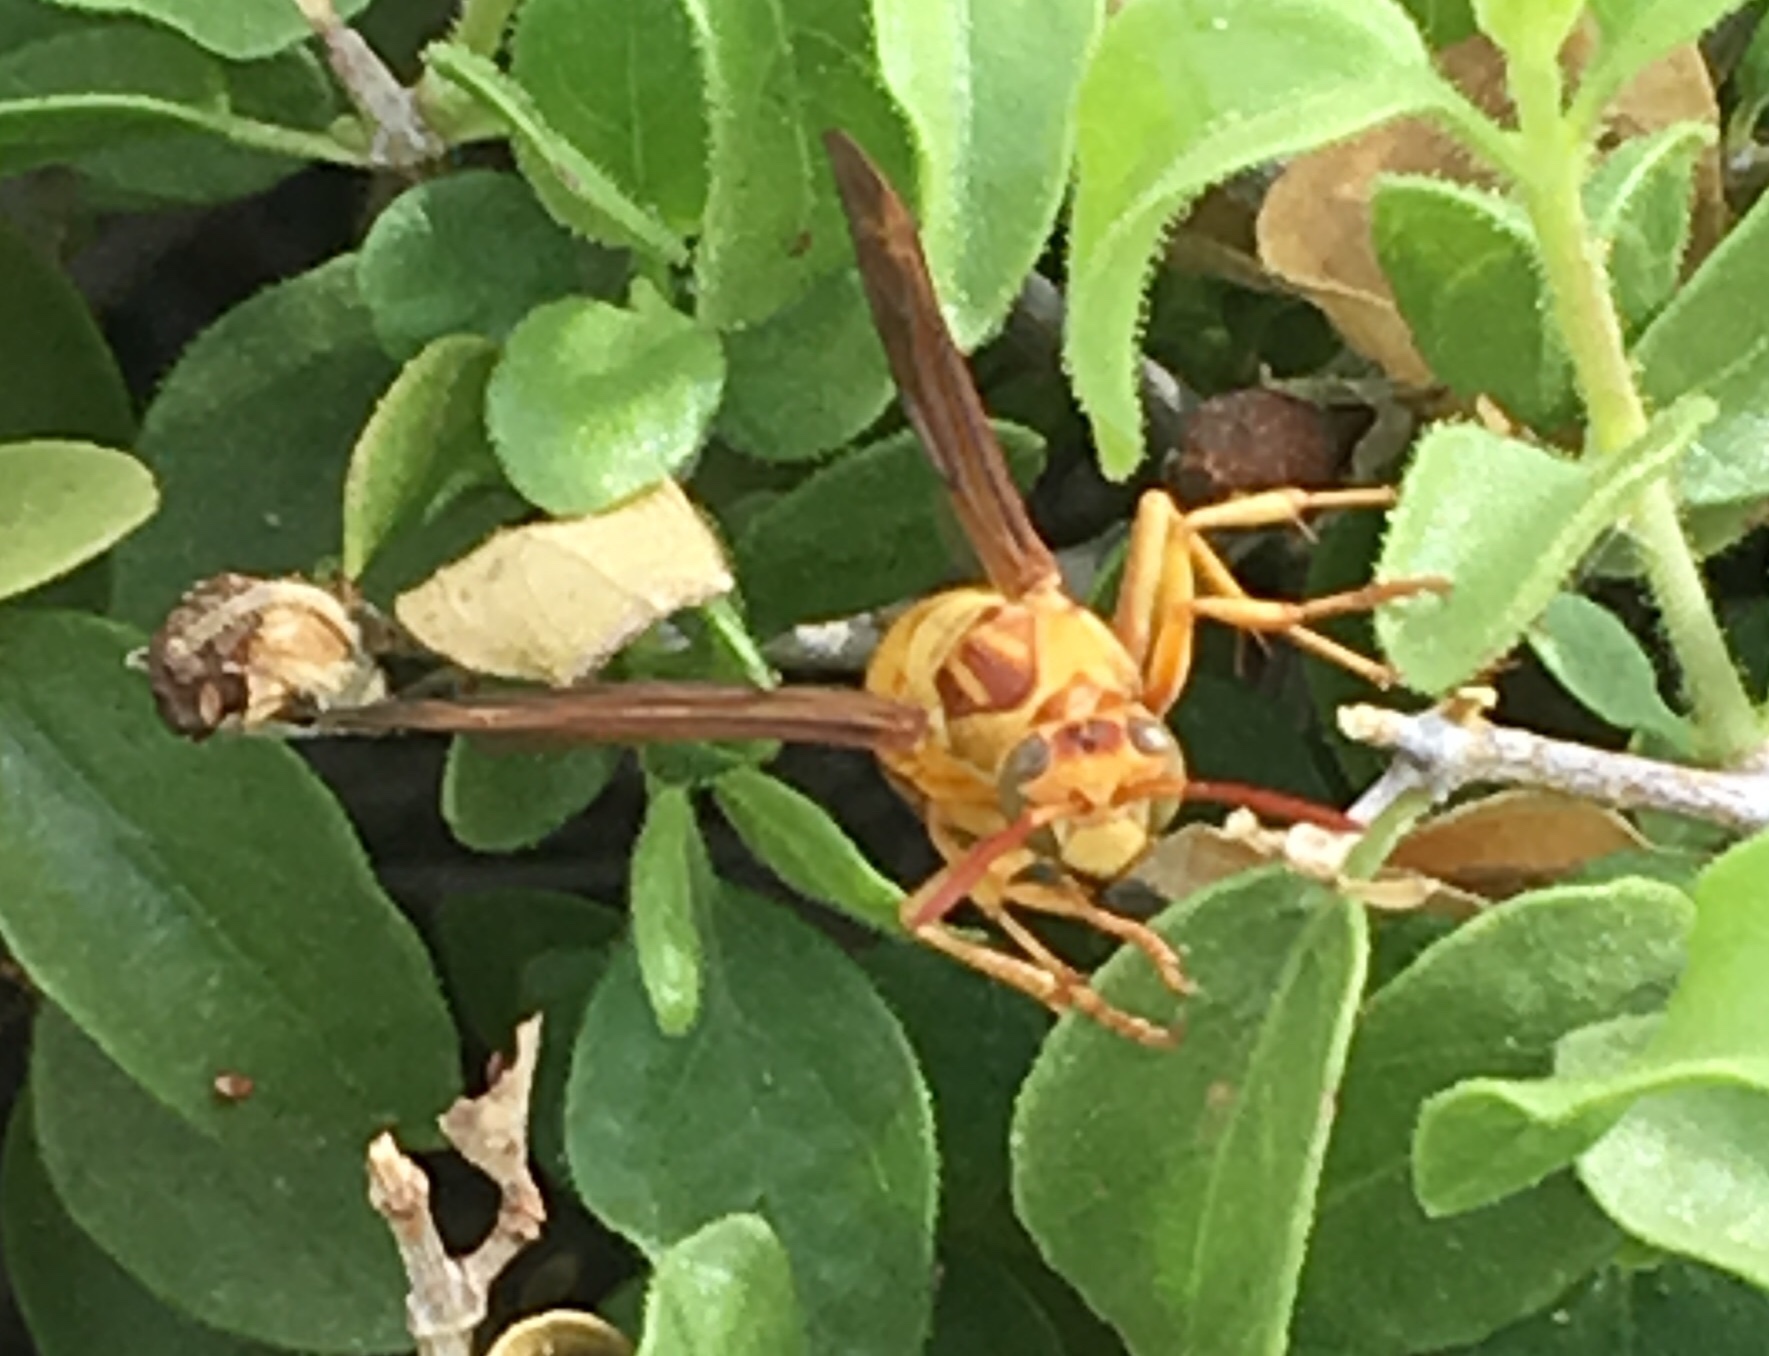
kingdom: Animalia
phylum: Arthropoda
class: Insecta
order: Hymenoptera
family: Eumenidae
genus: Polistes
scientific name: Polistes aurifer
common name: Paper wasp
